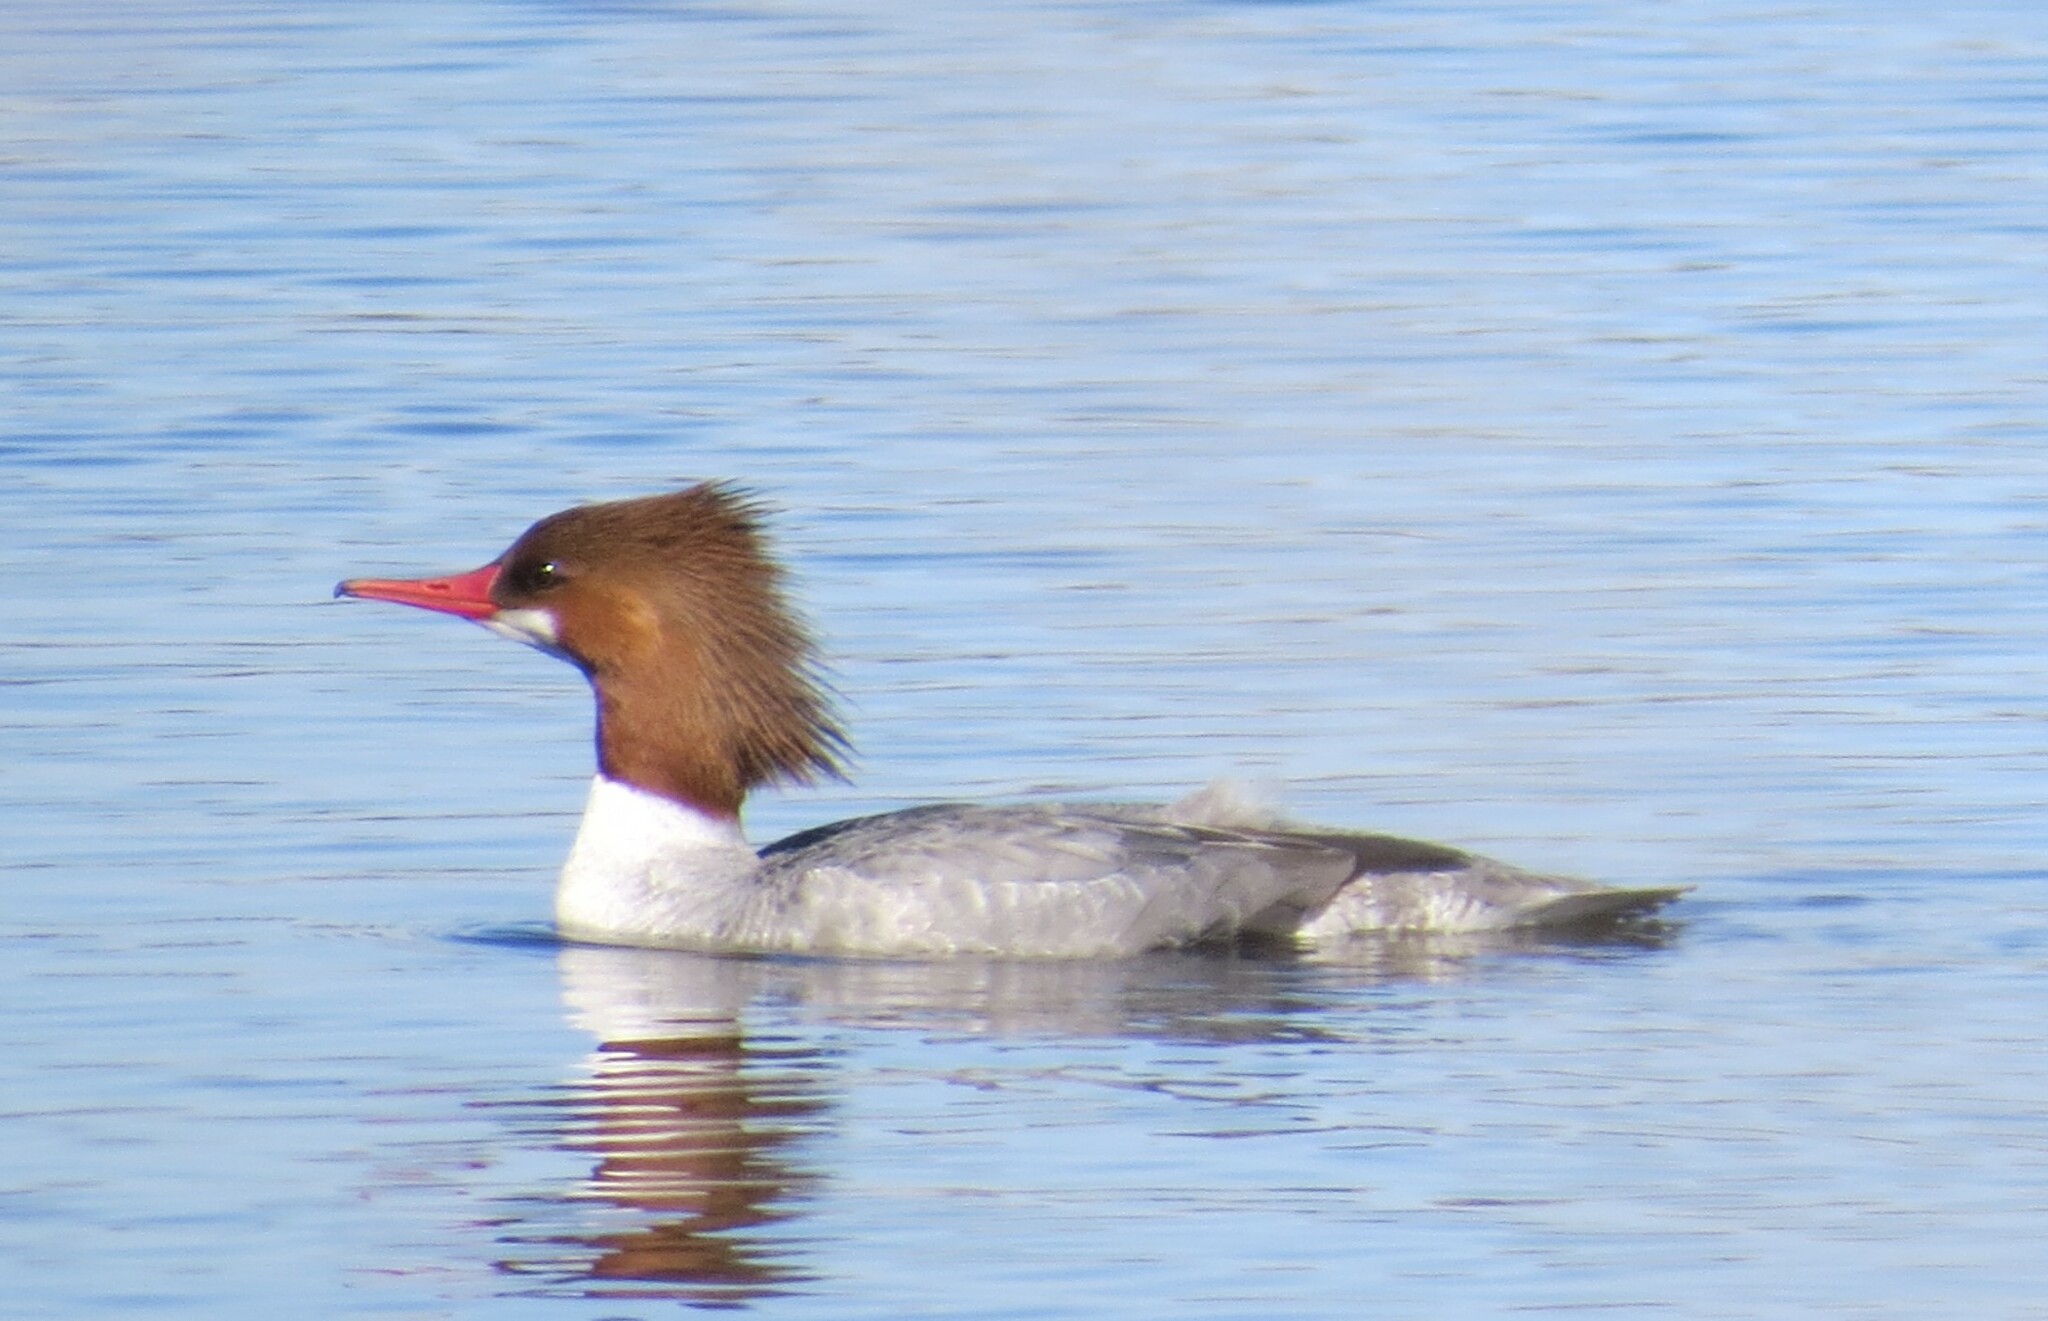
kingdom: Animalia
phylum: Chordata
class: Aves
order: Anseriformes
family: Anatidae
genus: Mergus
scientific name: Mergus merganser
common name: Common merganser
